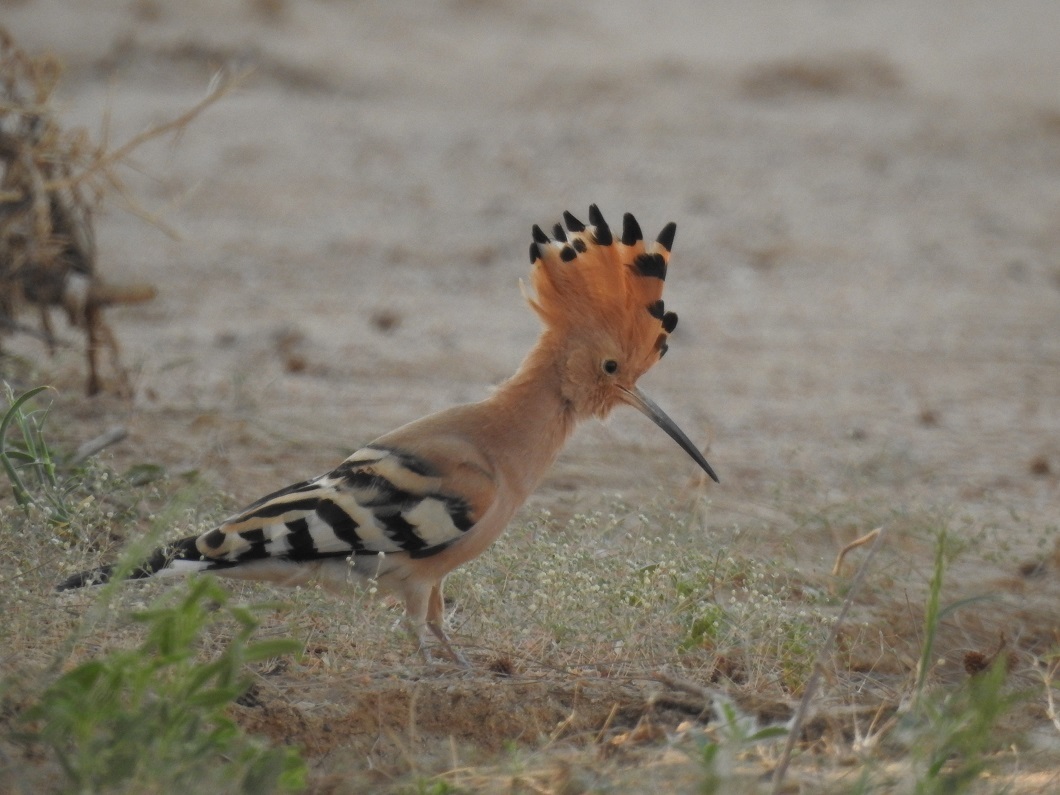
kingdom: Animalia
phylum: Chordata
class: Aves
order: Bucerotiformes
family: Upupidae
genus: Upupa
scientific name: Upupa epops
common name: Eurasian hoopoe
